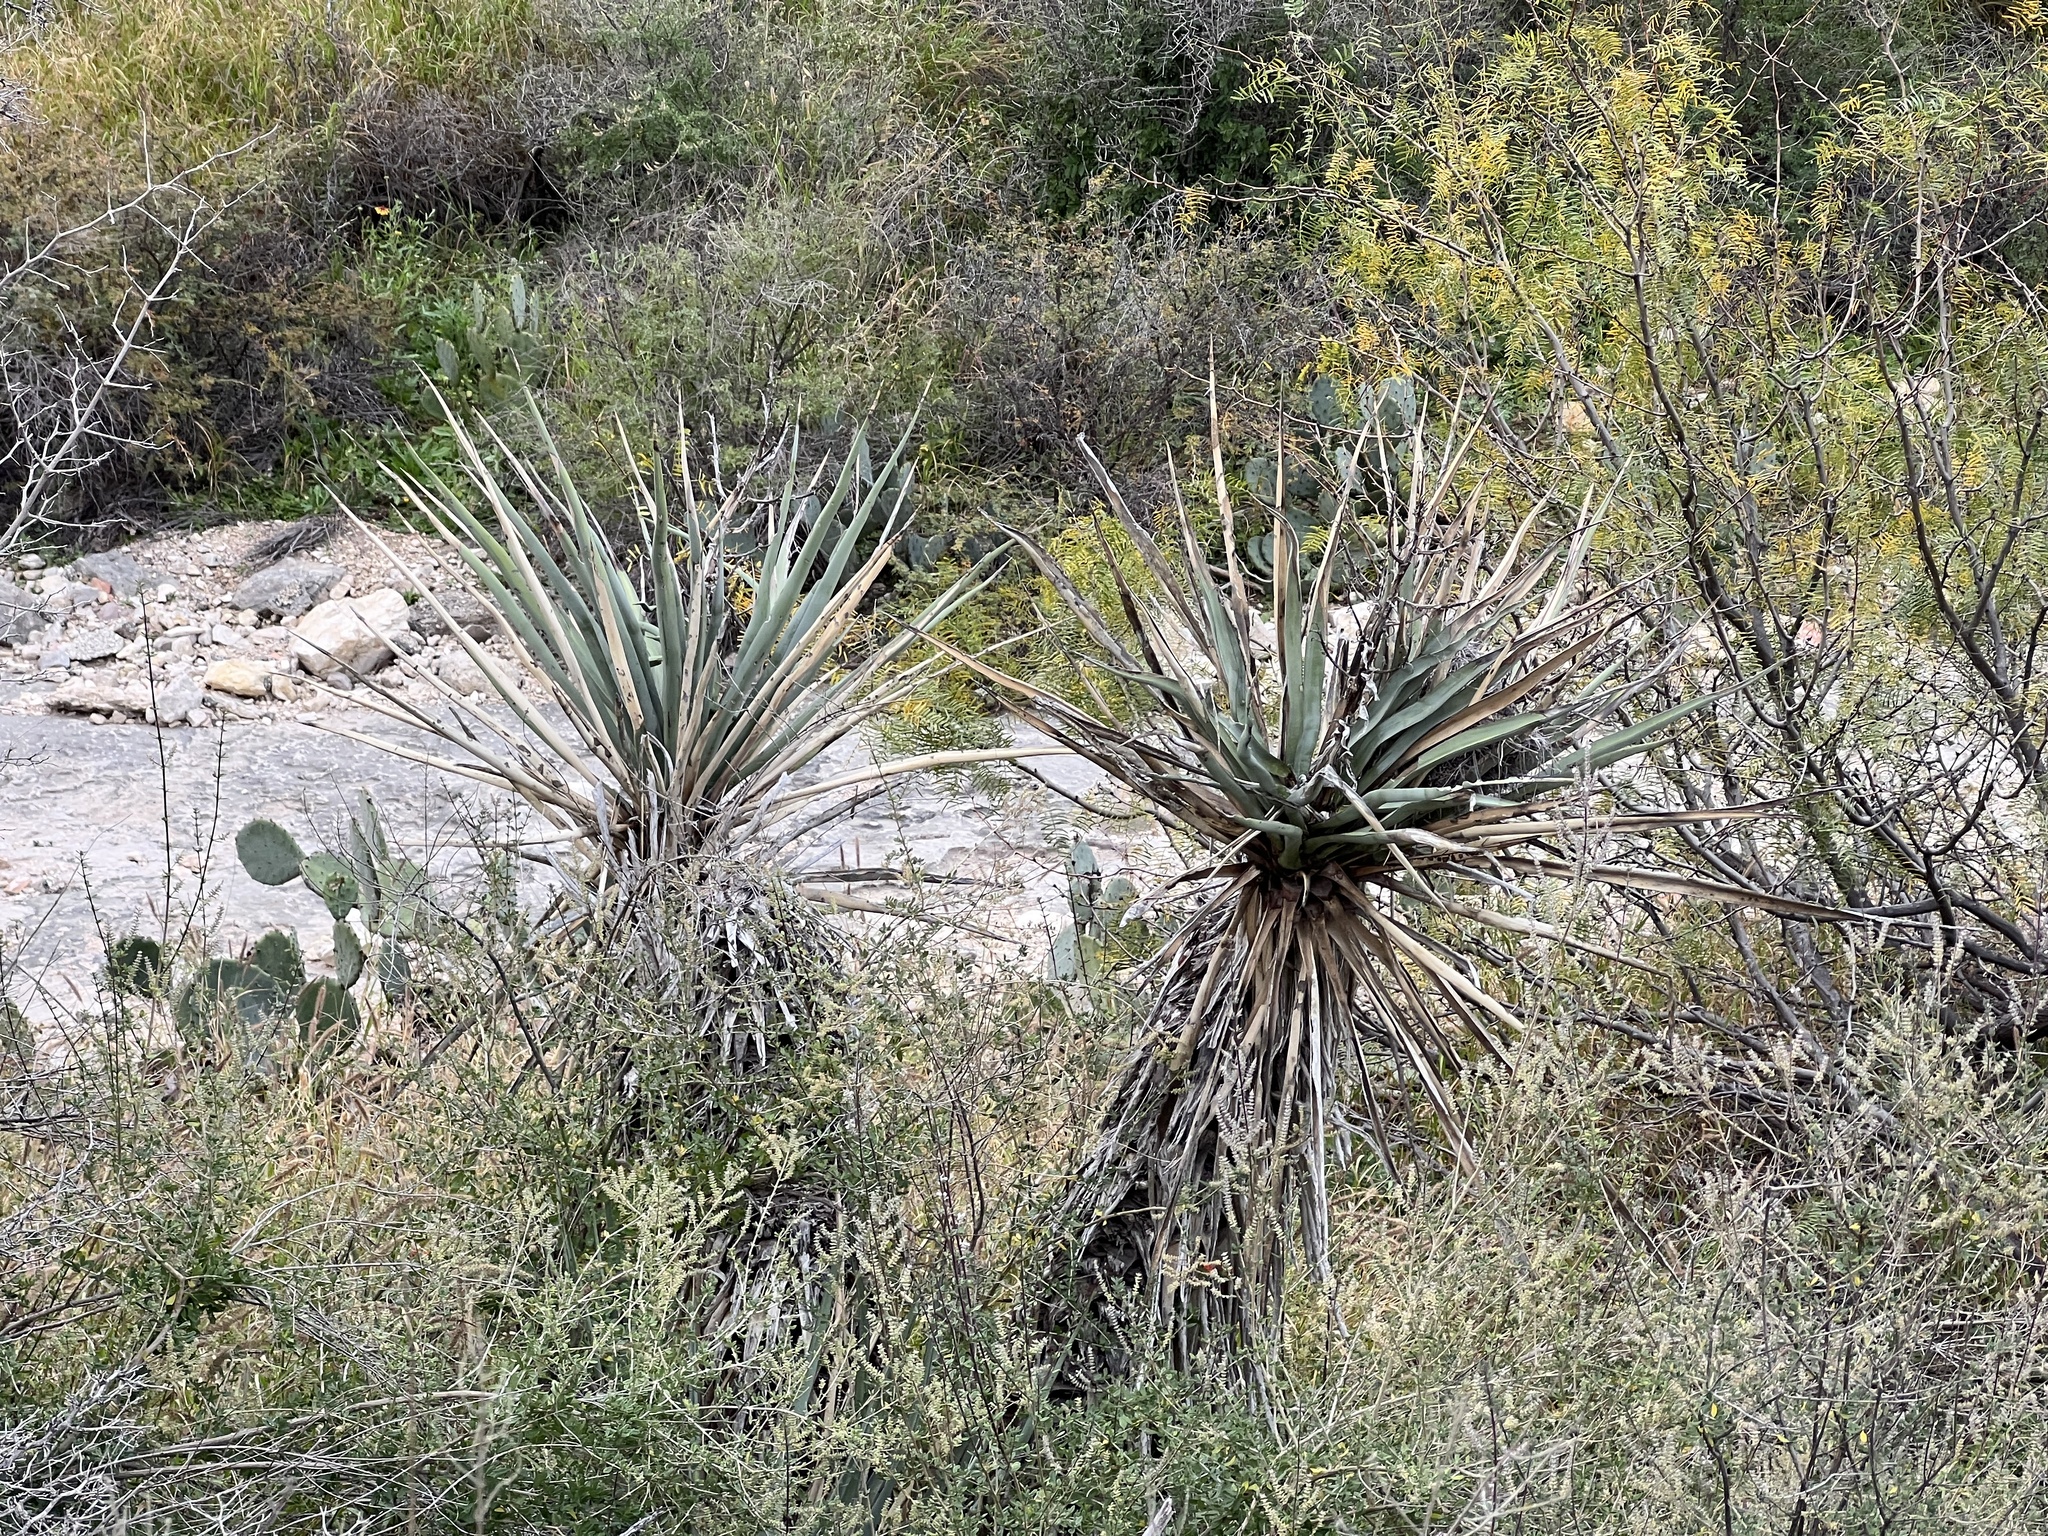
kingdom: Plantae
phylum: Tracheophyta
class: Liliopsida
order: Asparagales
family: Asparagaceae
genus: Yucca
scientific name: Yucca treculiana
